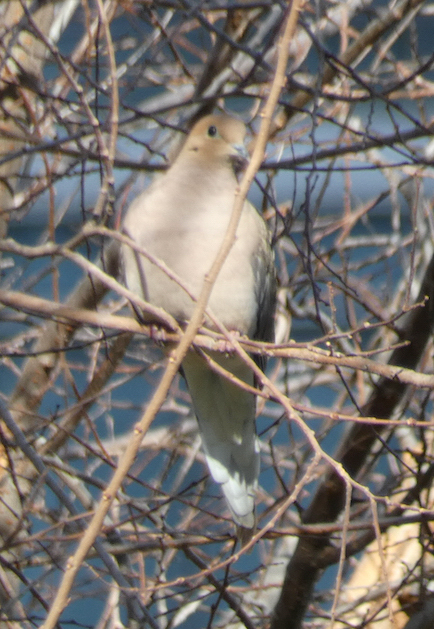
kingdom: Animalia
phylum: Chordata
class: Aves
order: Columbiformes
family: Columbidae
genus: Zenaida
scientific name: Zenaida macroura
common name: Mourning dove
